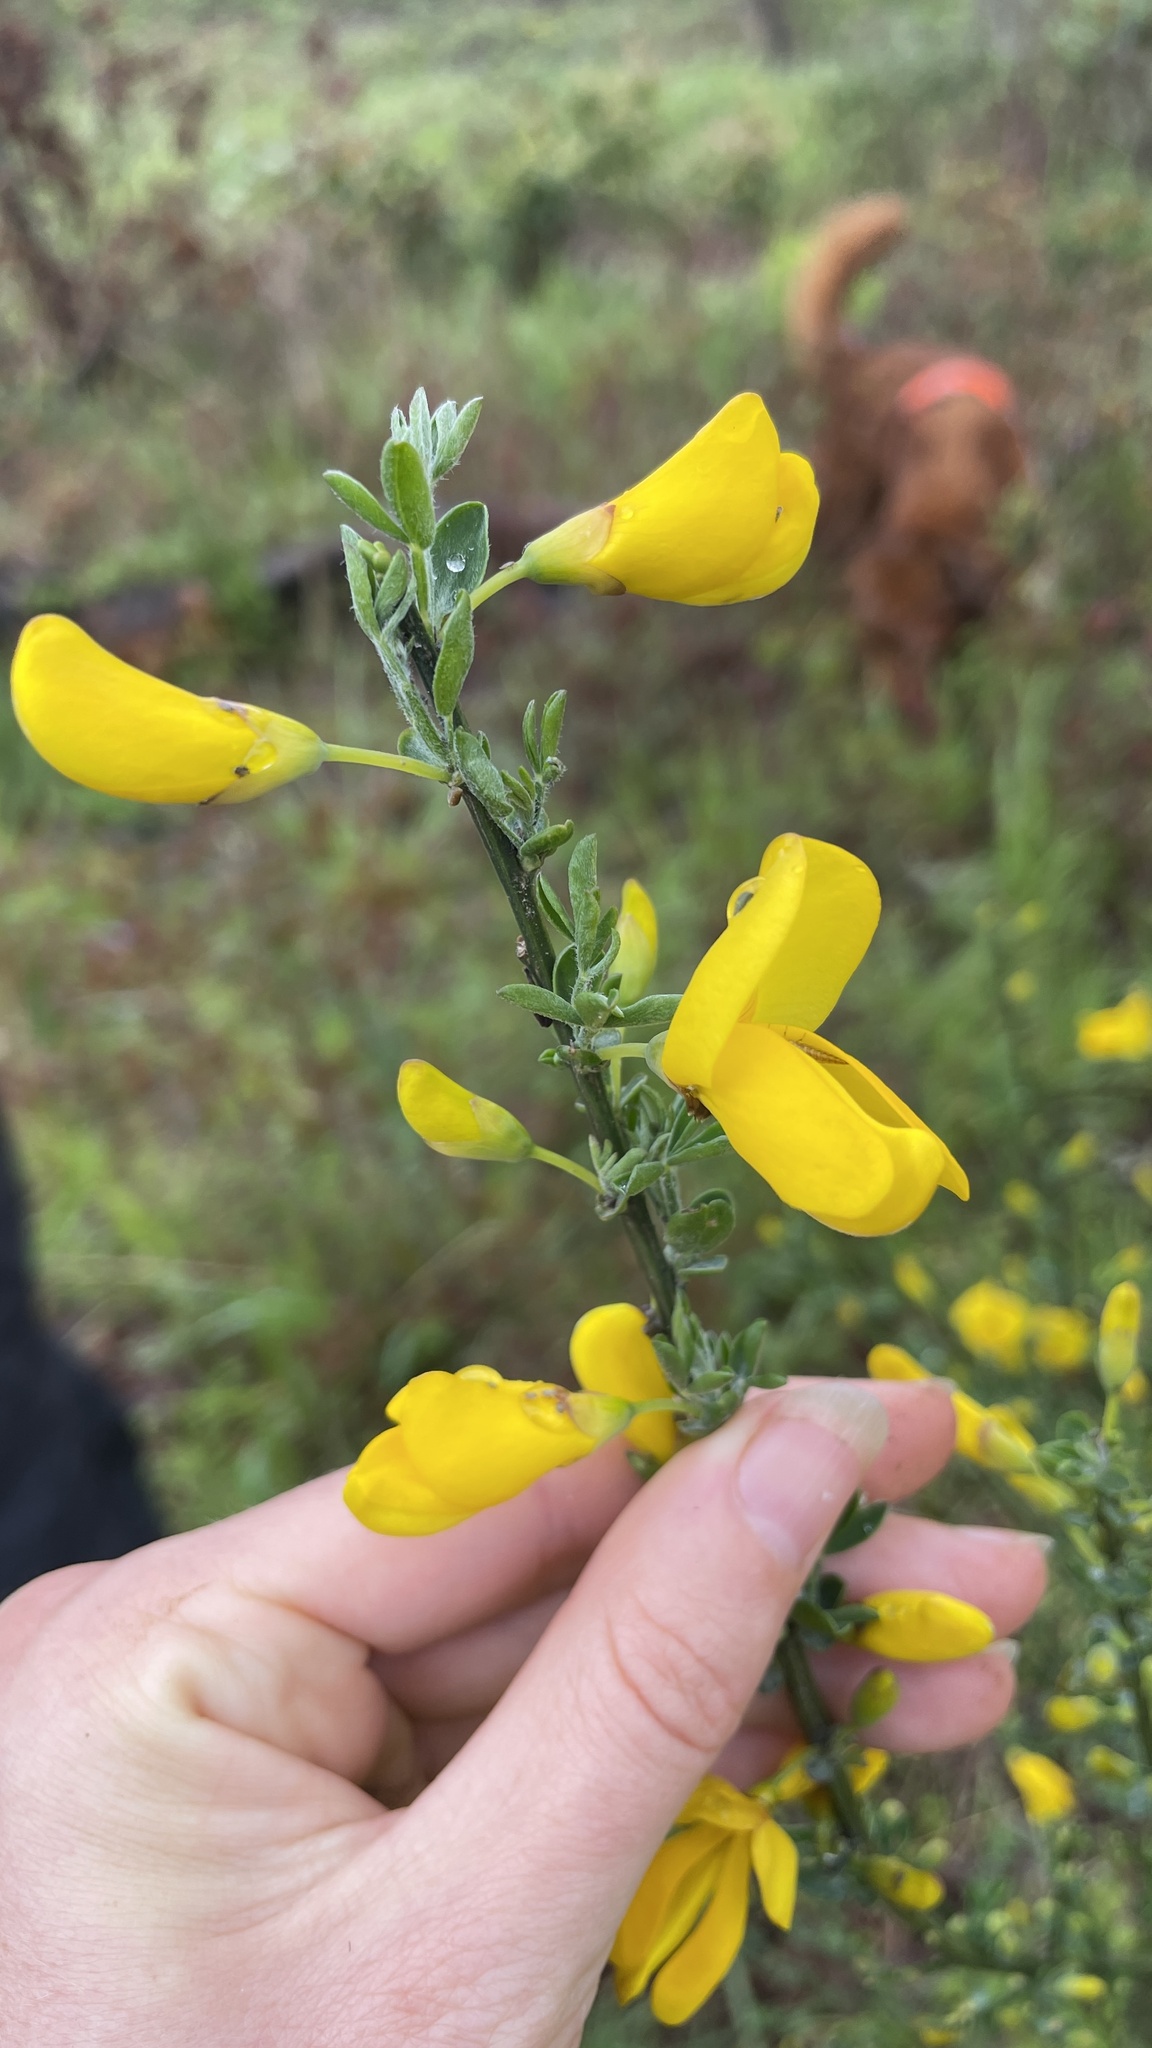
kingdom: Plantae
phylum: Tracheophyta
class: Magnoliopsida
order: Fabales
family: Fabaceae
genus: Cytisus
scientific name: Cytisus scoparius
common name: Scotch broom
